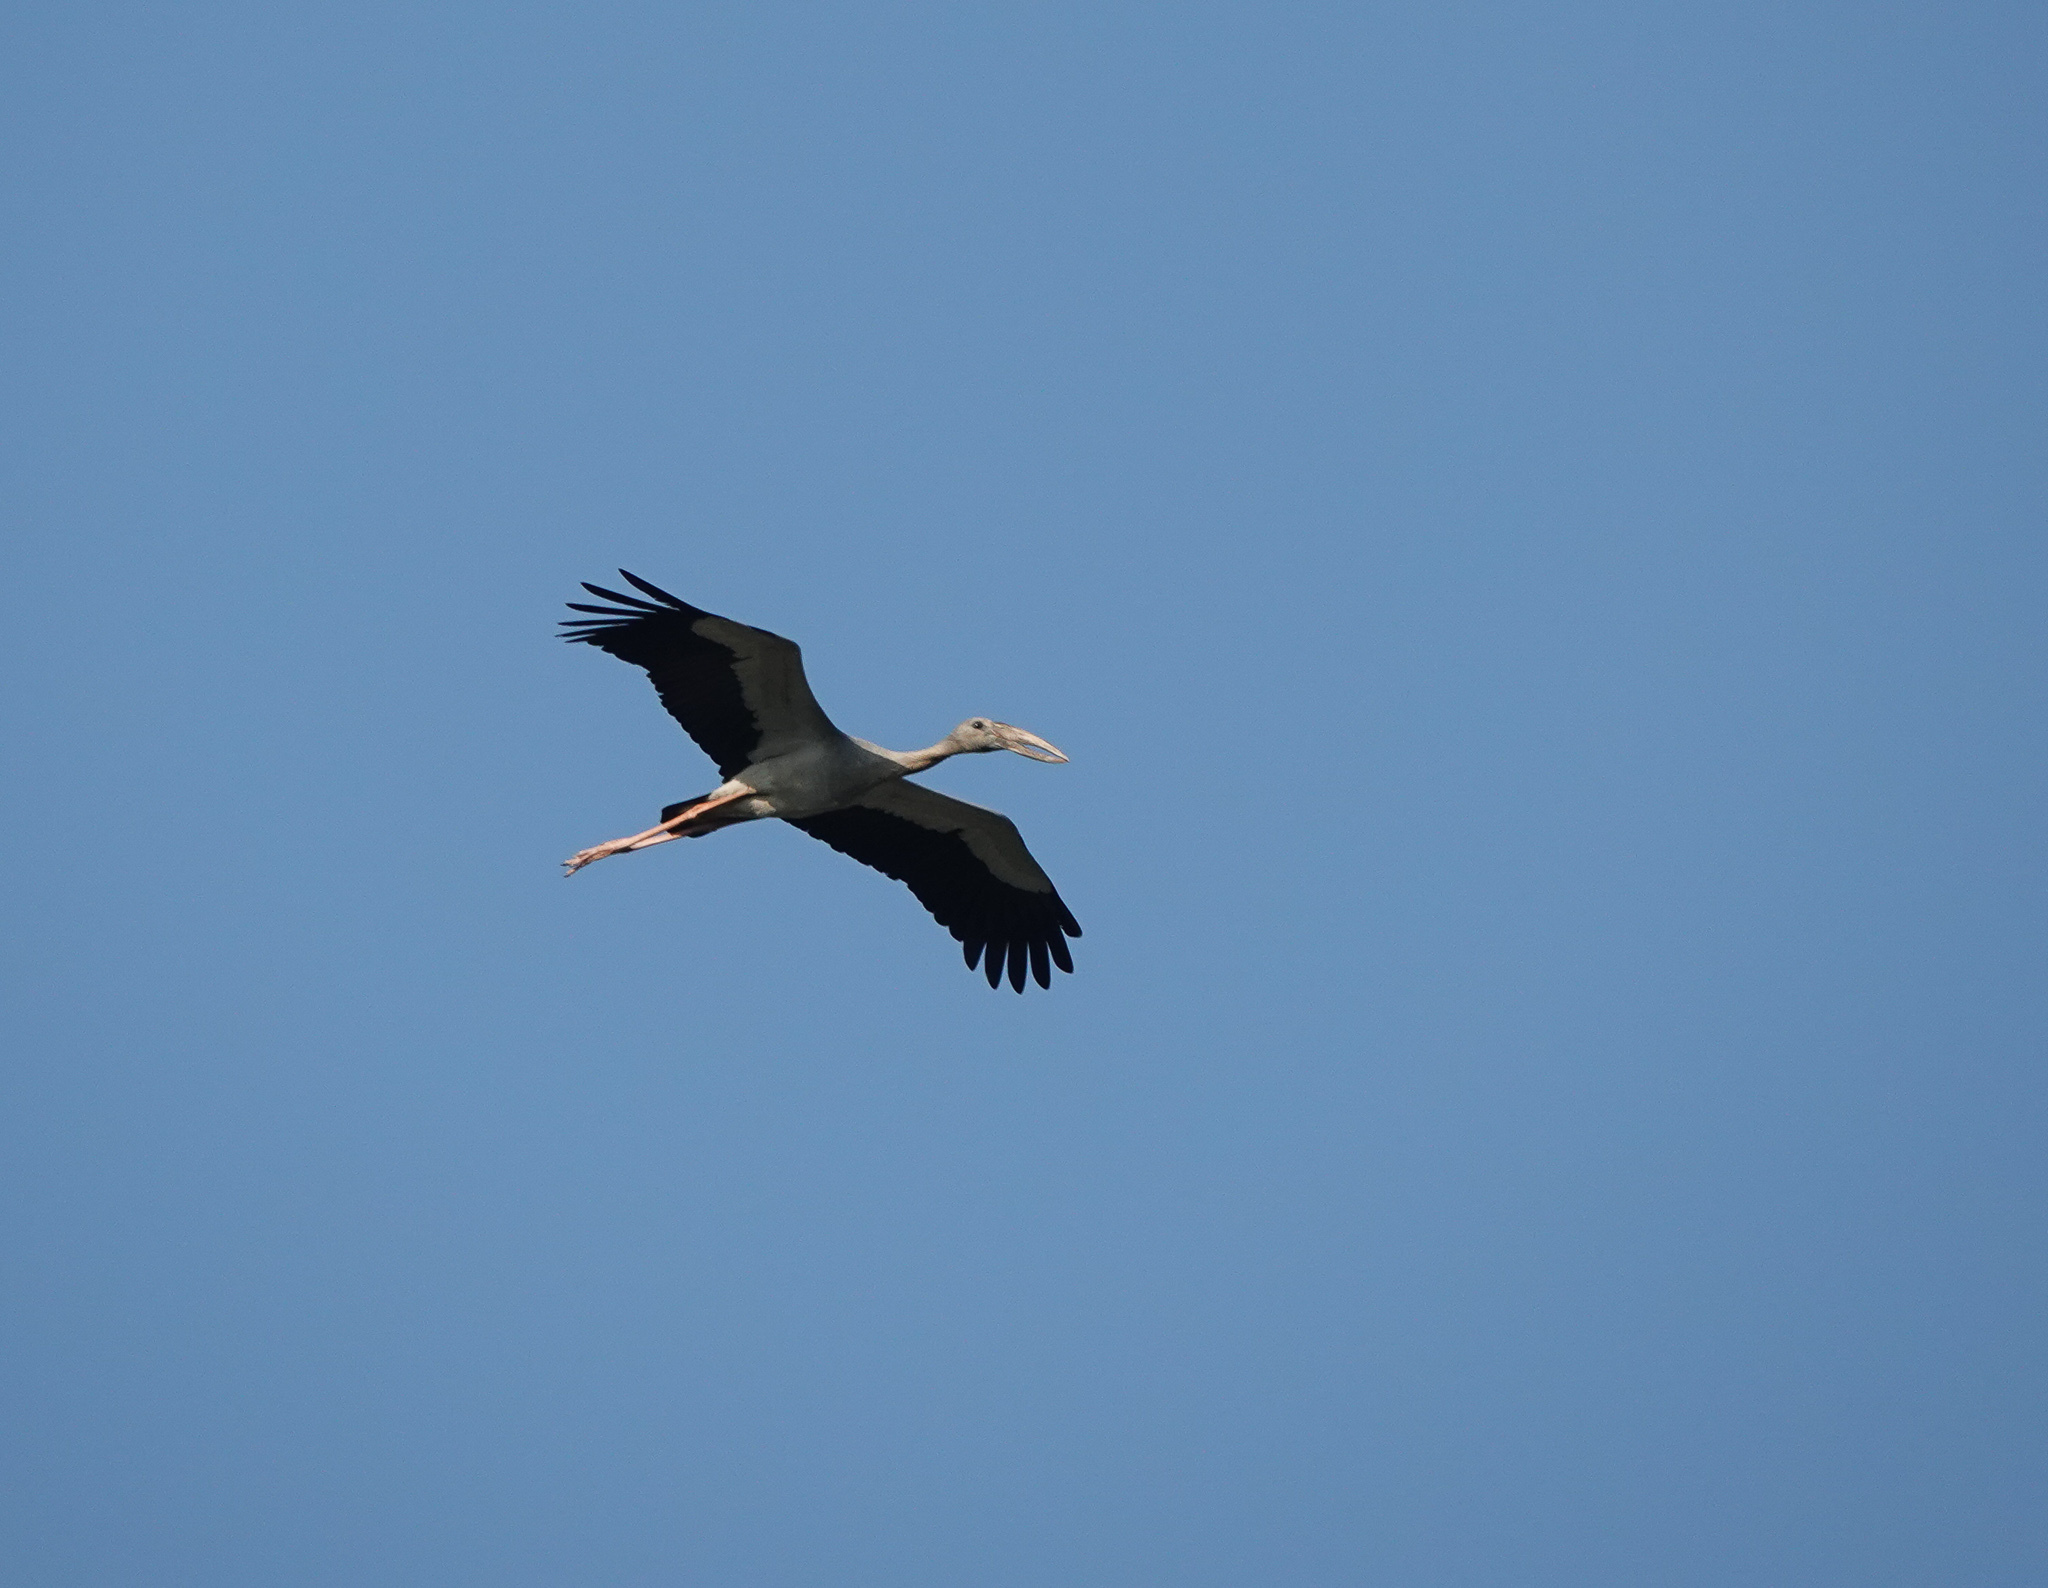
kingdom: Animalia
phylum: Chordata
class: Aves
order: Ciconiiformes
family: Ciconiidae
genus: Anastomus
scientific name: Anastomus oscitans
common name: Asian openbill
